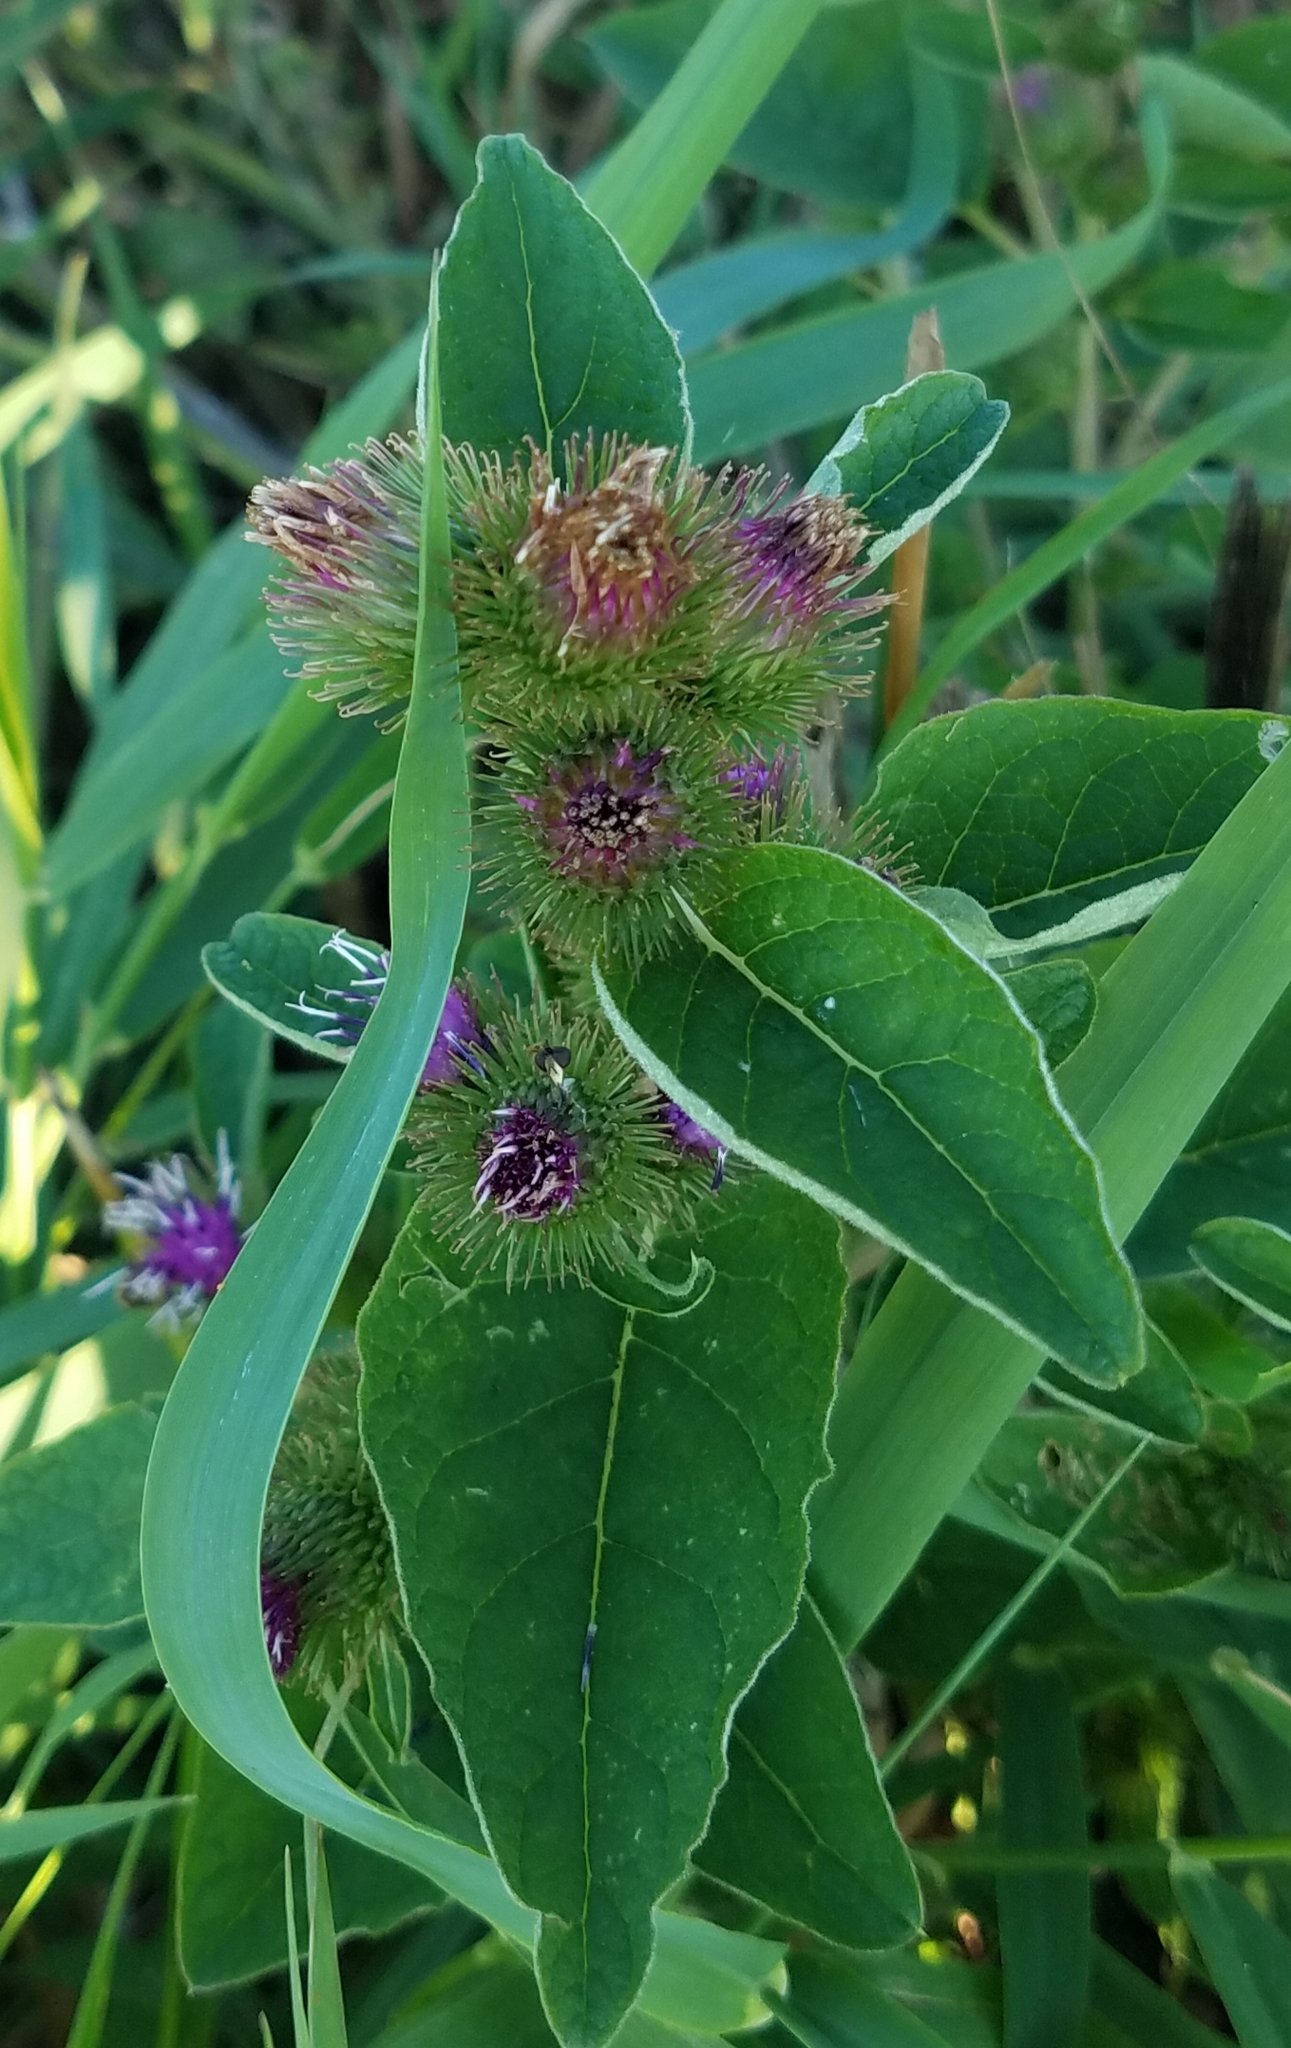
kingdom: Plantae
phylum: Tracheophyta
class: Magnoliopsida
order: Asterales
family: Asteraceae
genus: Arctium
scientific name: Arctium minus
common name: Lesser burdock
